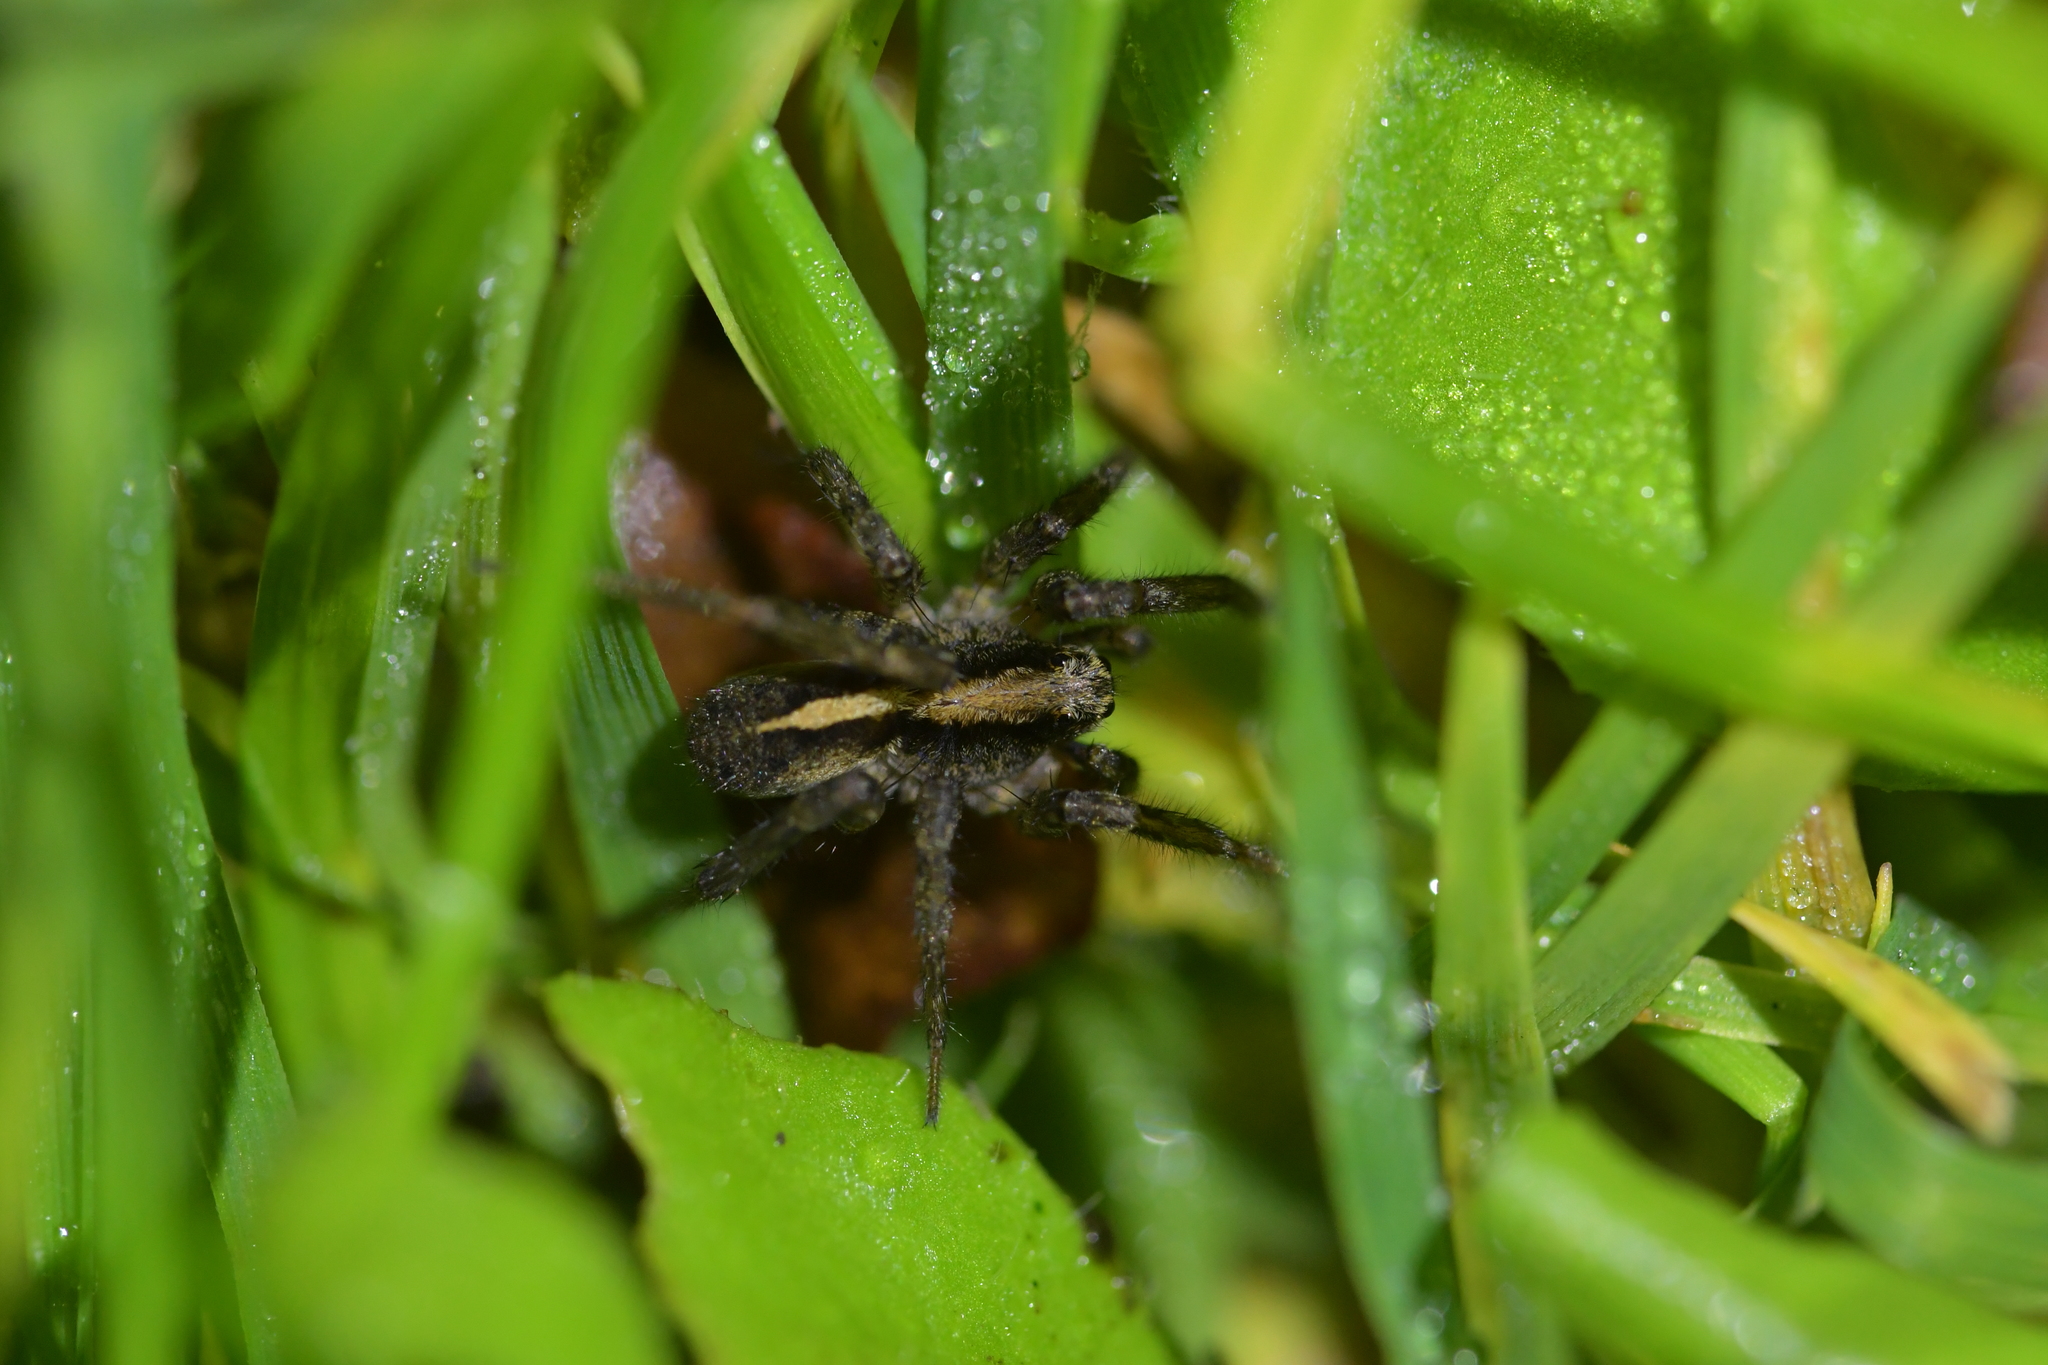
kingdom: Animalia
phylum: Arthropoda
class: Arachnida
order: Araneae
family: Lycosidae
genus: Anoteropsis
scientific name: Anoteropsis hilaris
